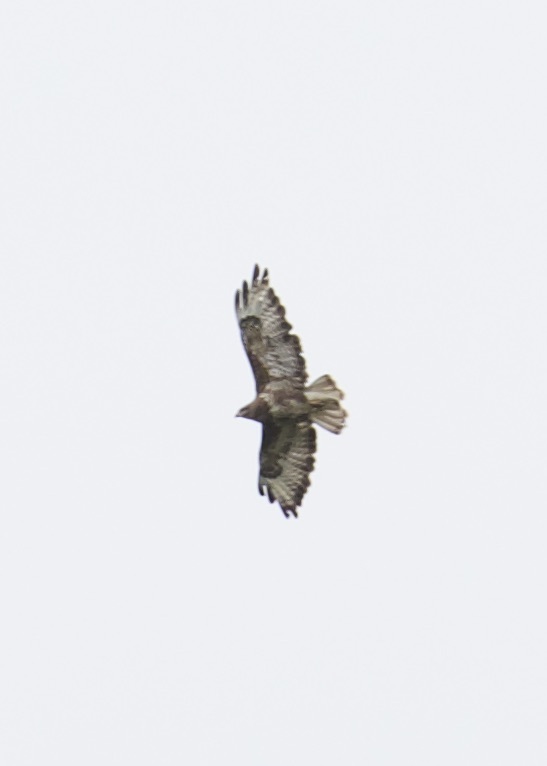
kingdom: Animalia
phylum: Chordata
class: Aves
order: Accipitriformes
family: Accipitridae
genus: Buteo
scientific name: Buteo buteo
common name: Common buzzard
